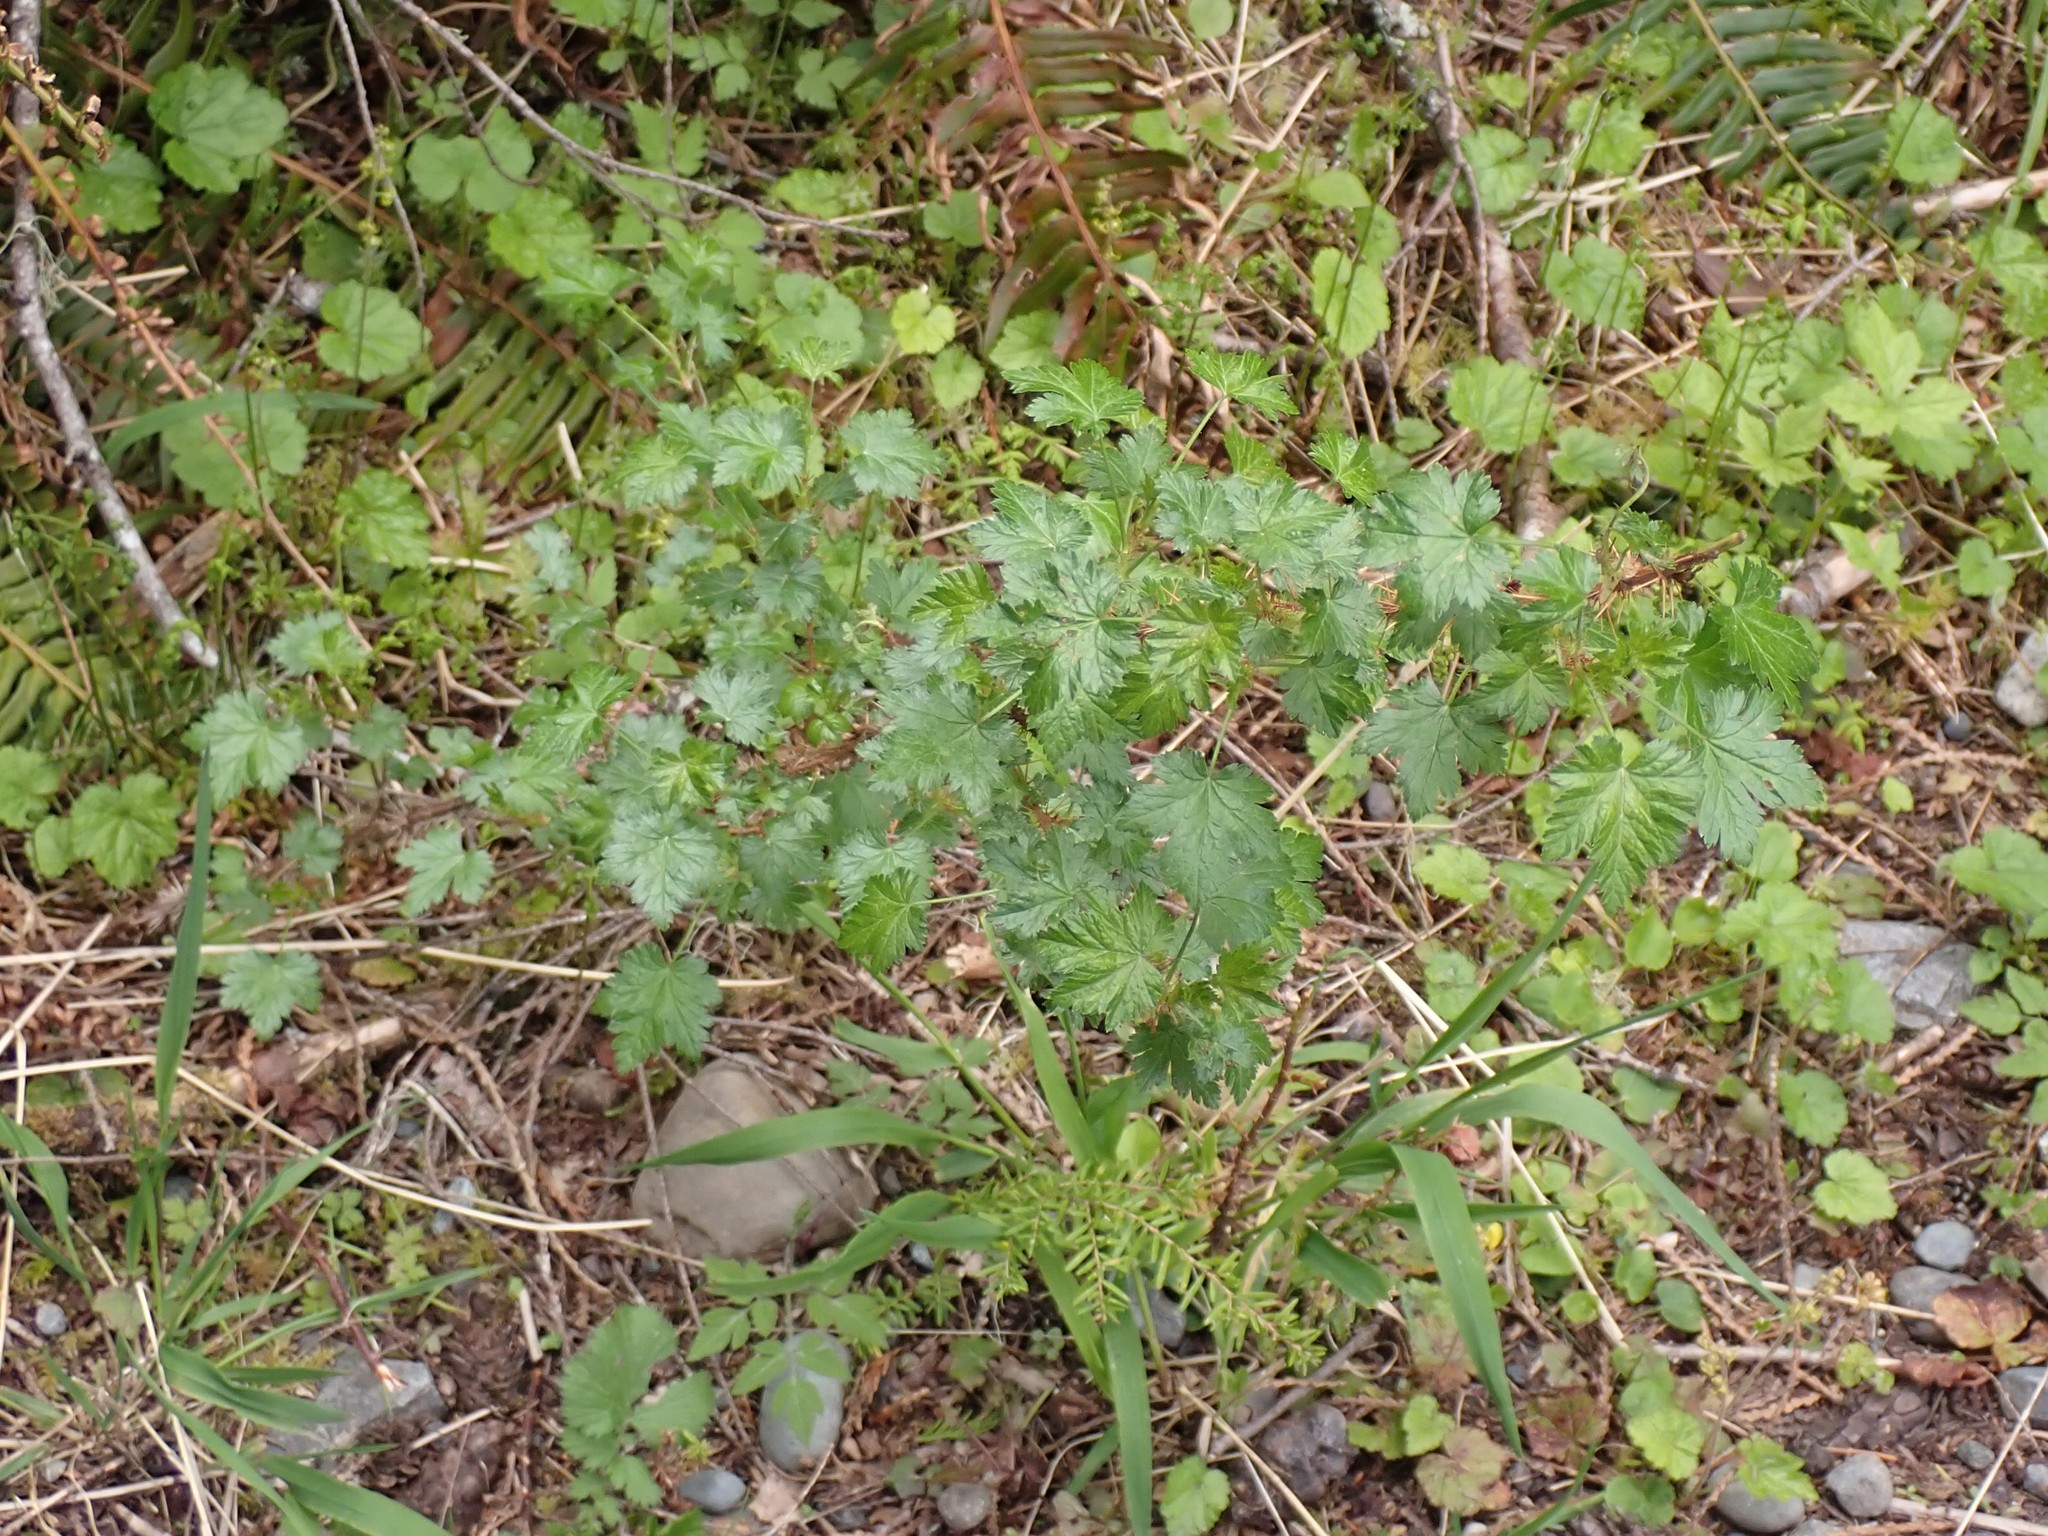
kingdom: Plantae
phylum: Tracheophyta
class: Magnoliopsida
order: Saxifragales
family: Grossulariaceae
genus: Ribes
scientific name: Ribes lacustre
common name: Black gooseberry
